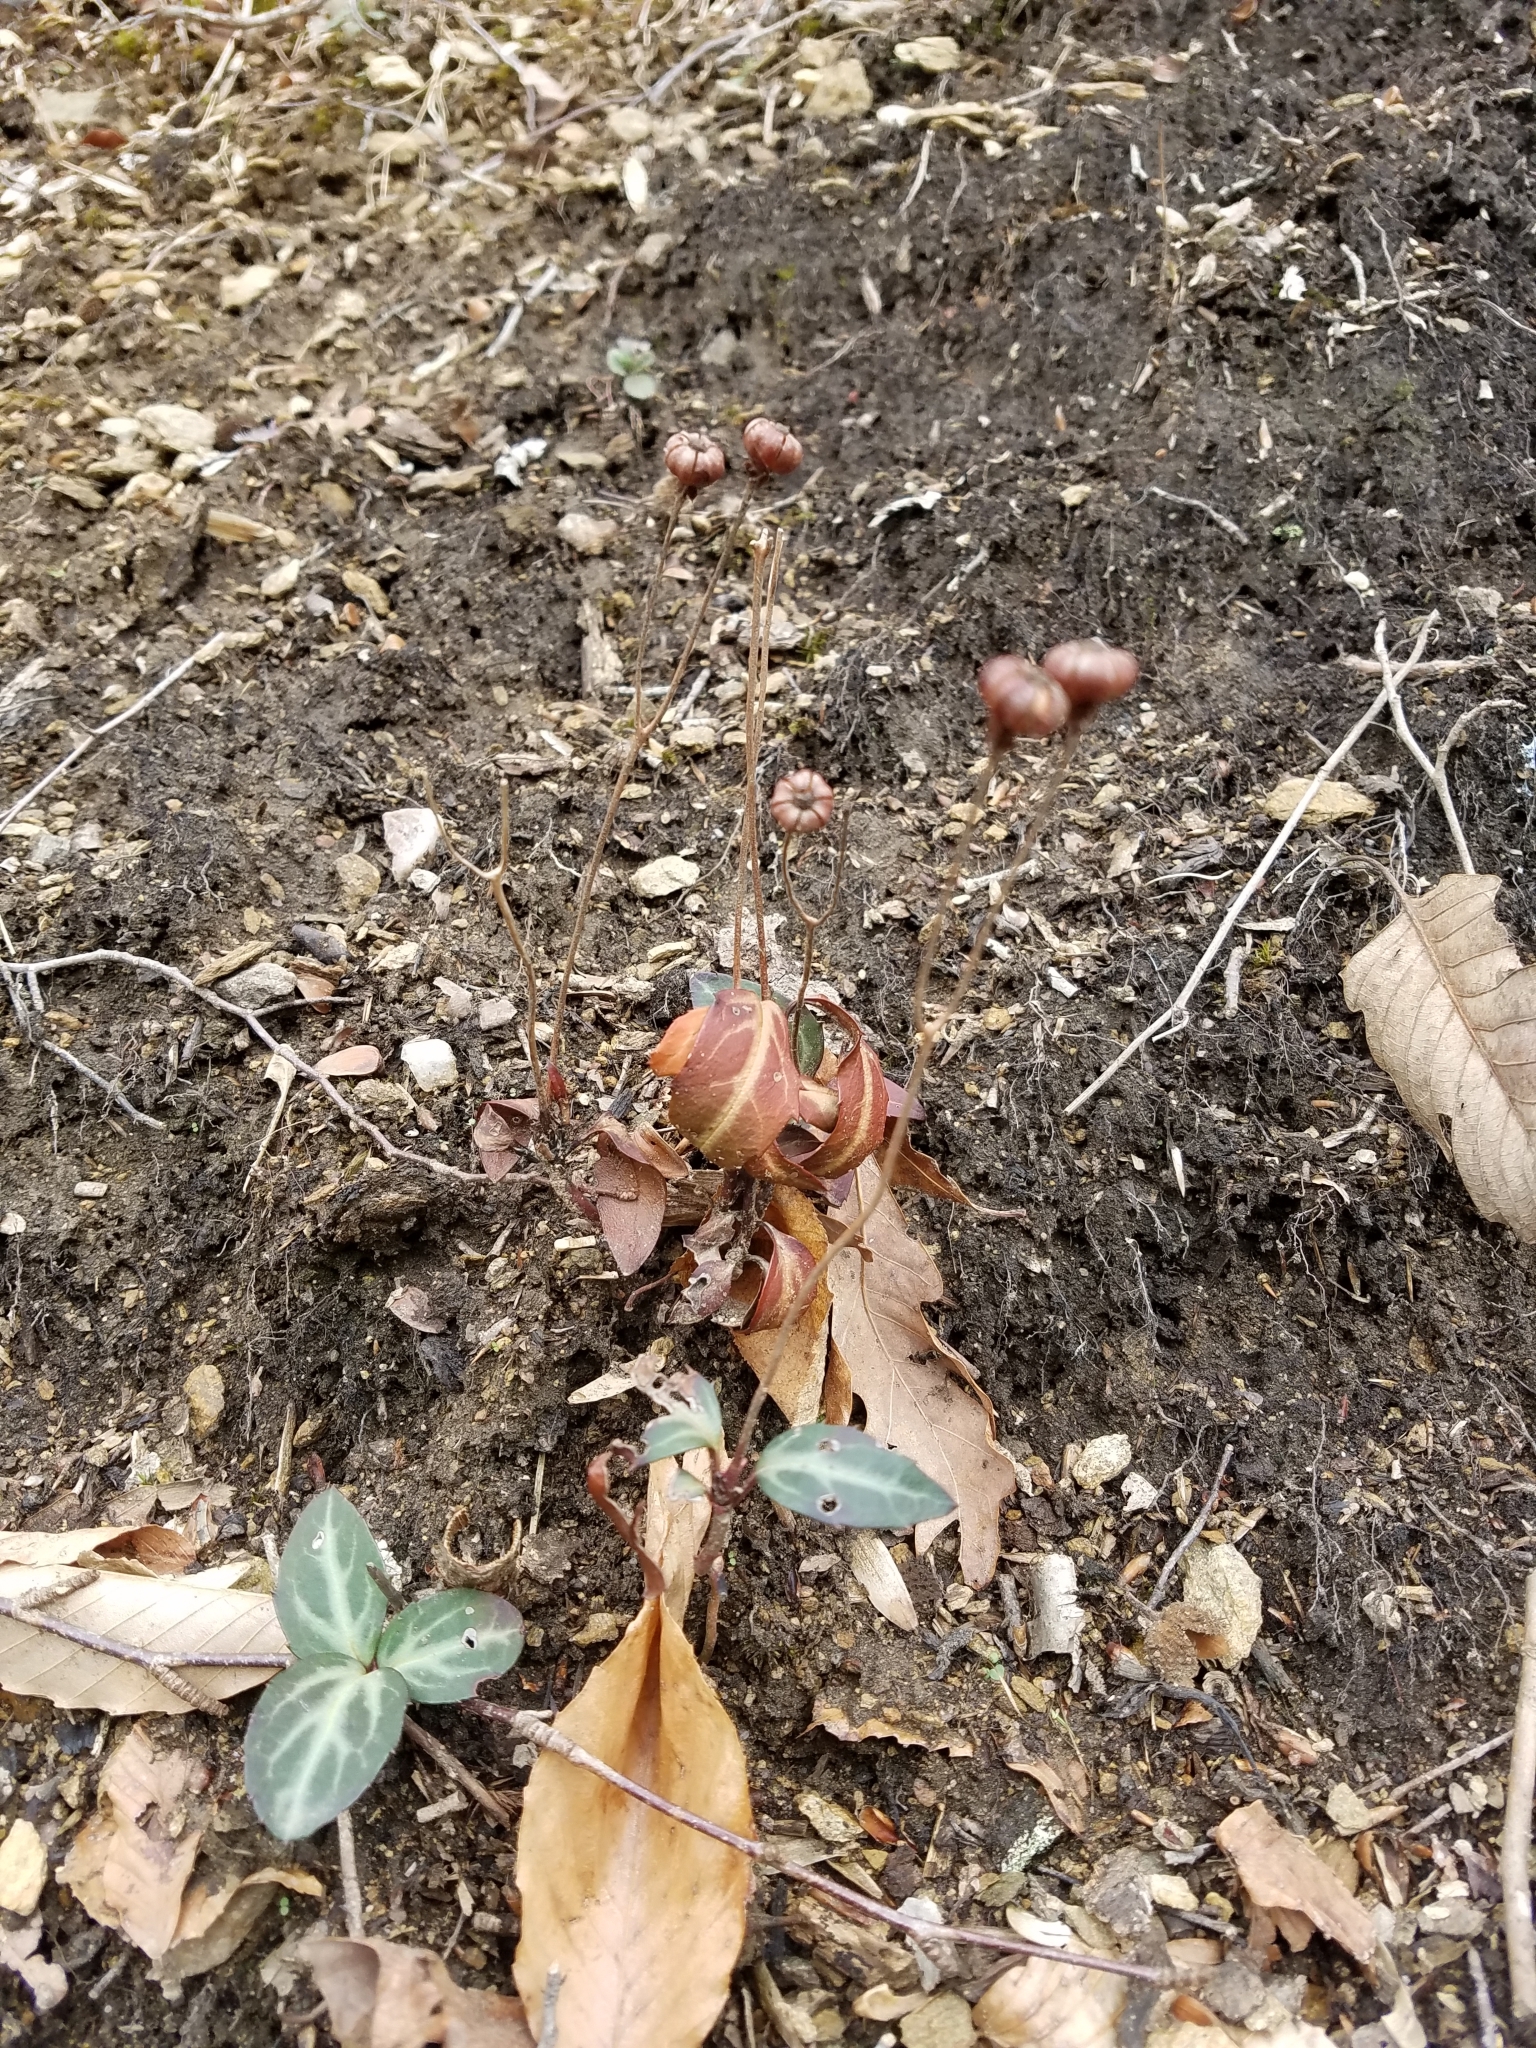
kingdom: Plantae
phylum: Tracheophyta
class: Magnoliopsida
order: Ericales
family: Ericaceae
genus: Chimaphila
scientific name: Chimaphila maculata
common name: Spotted pipsissewa
